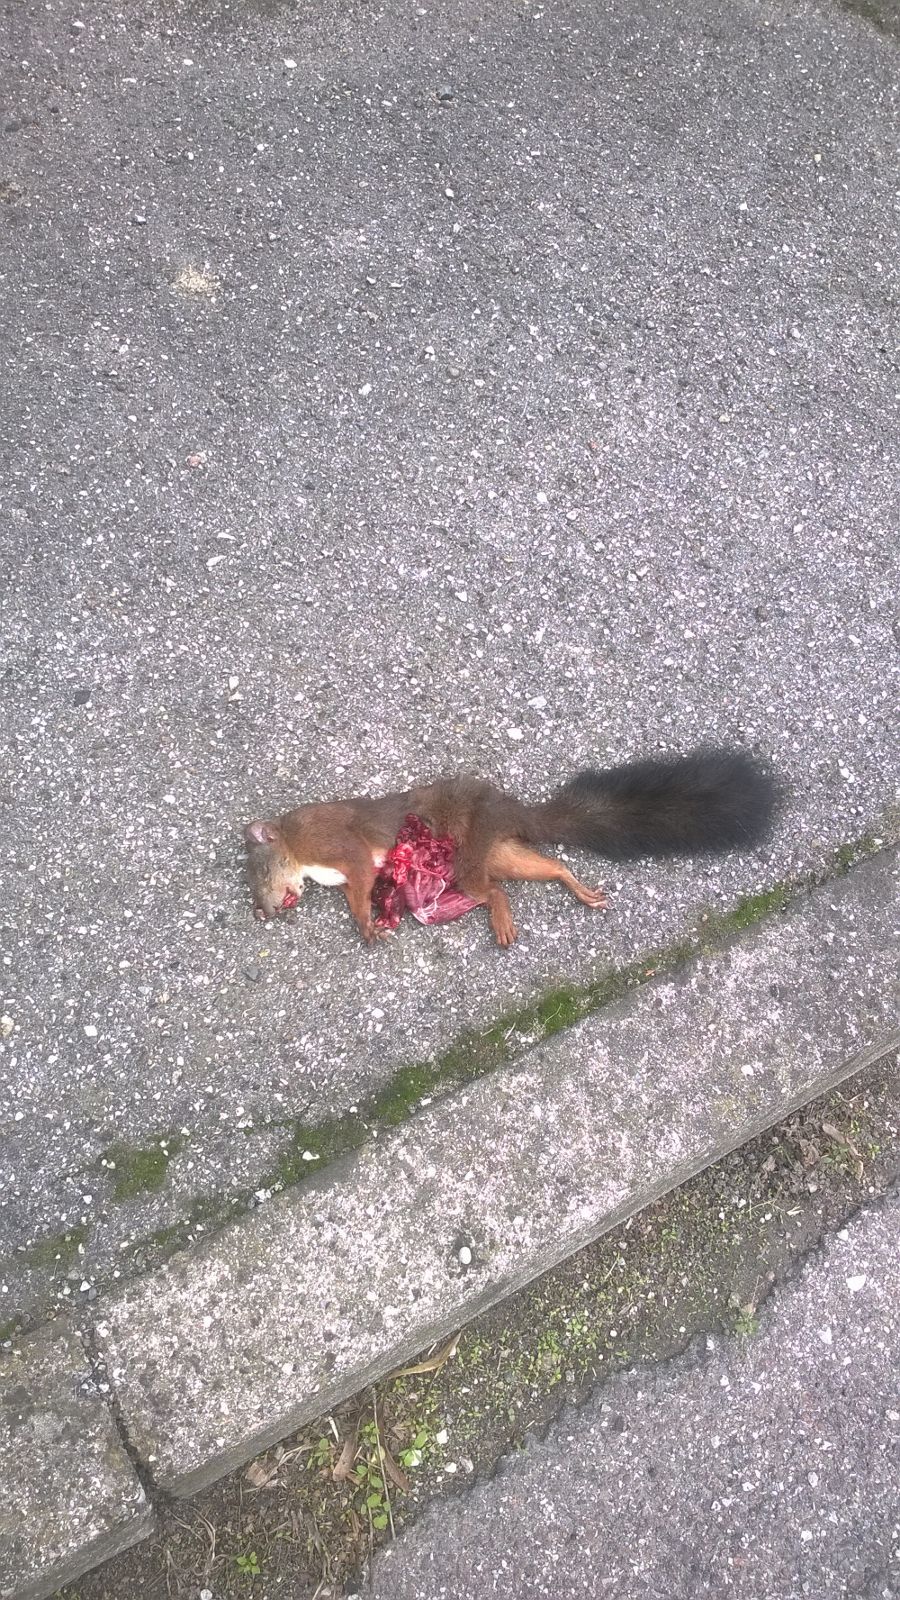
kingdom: Animalia
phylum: Chordata
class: Mammalia
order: Rodentia
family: Sciuridae
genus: Sciurus
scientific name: Sciurus vulgaris
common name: Eurasian red squirrel
